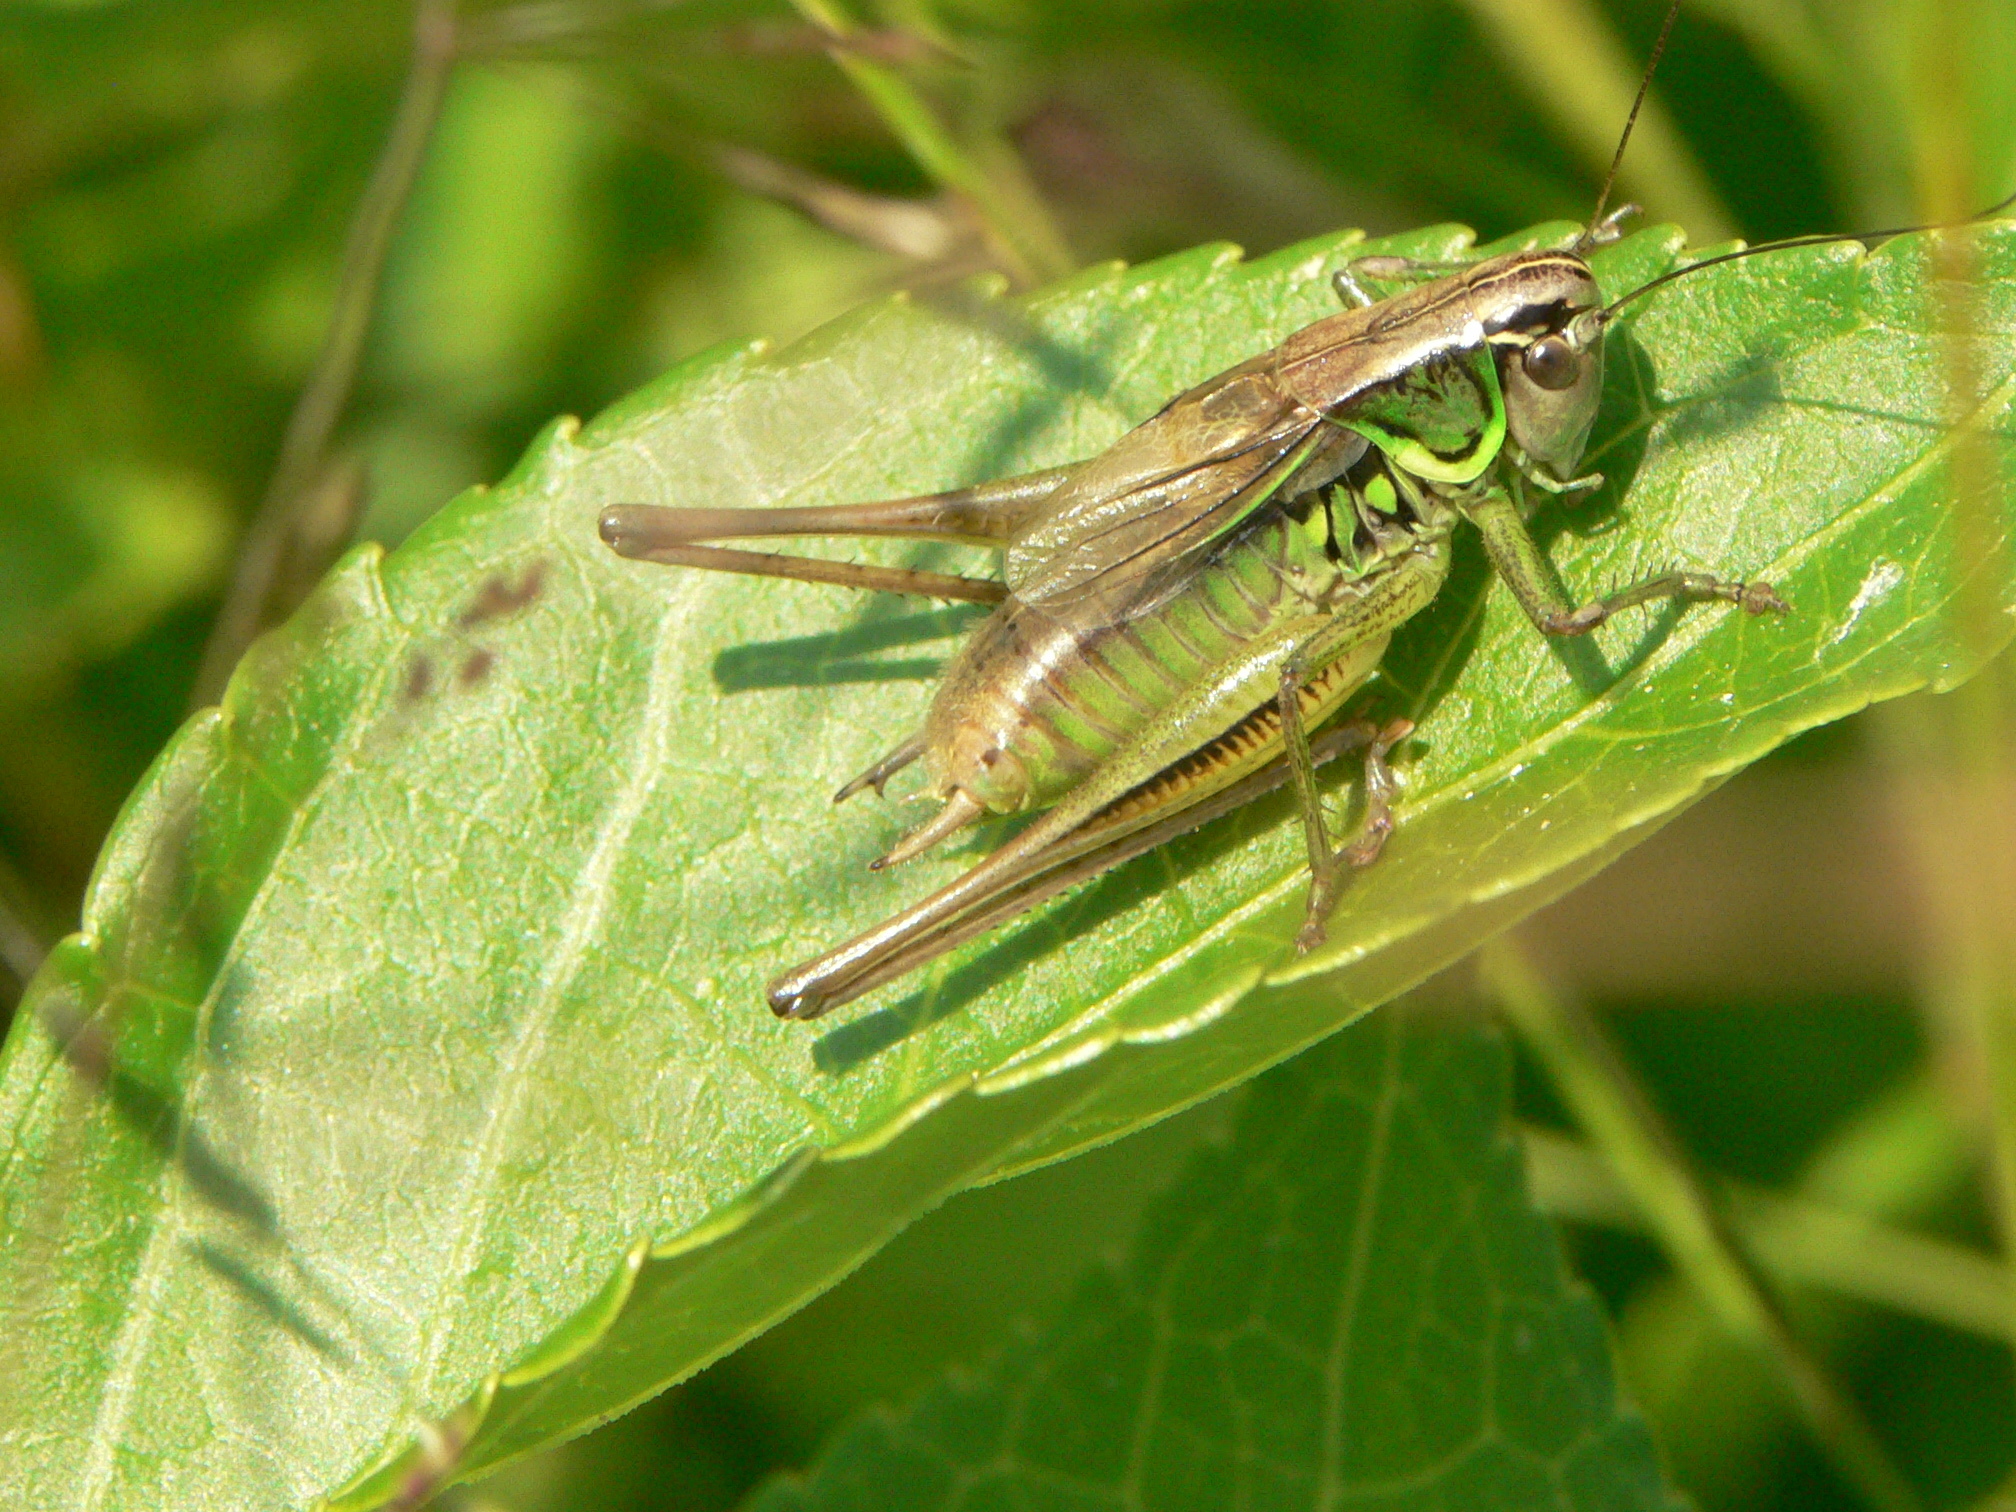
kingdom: Animalia
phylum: Arthropoda
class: Insecta
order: Orthoptera
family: Tettigoniidae
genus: Roeseliana
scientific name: Roeseliana roeselii
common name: Roesel's bush cricket
